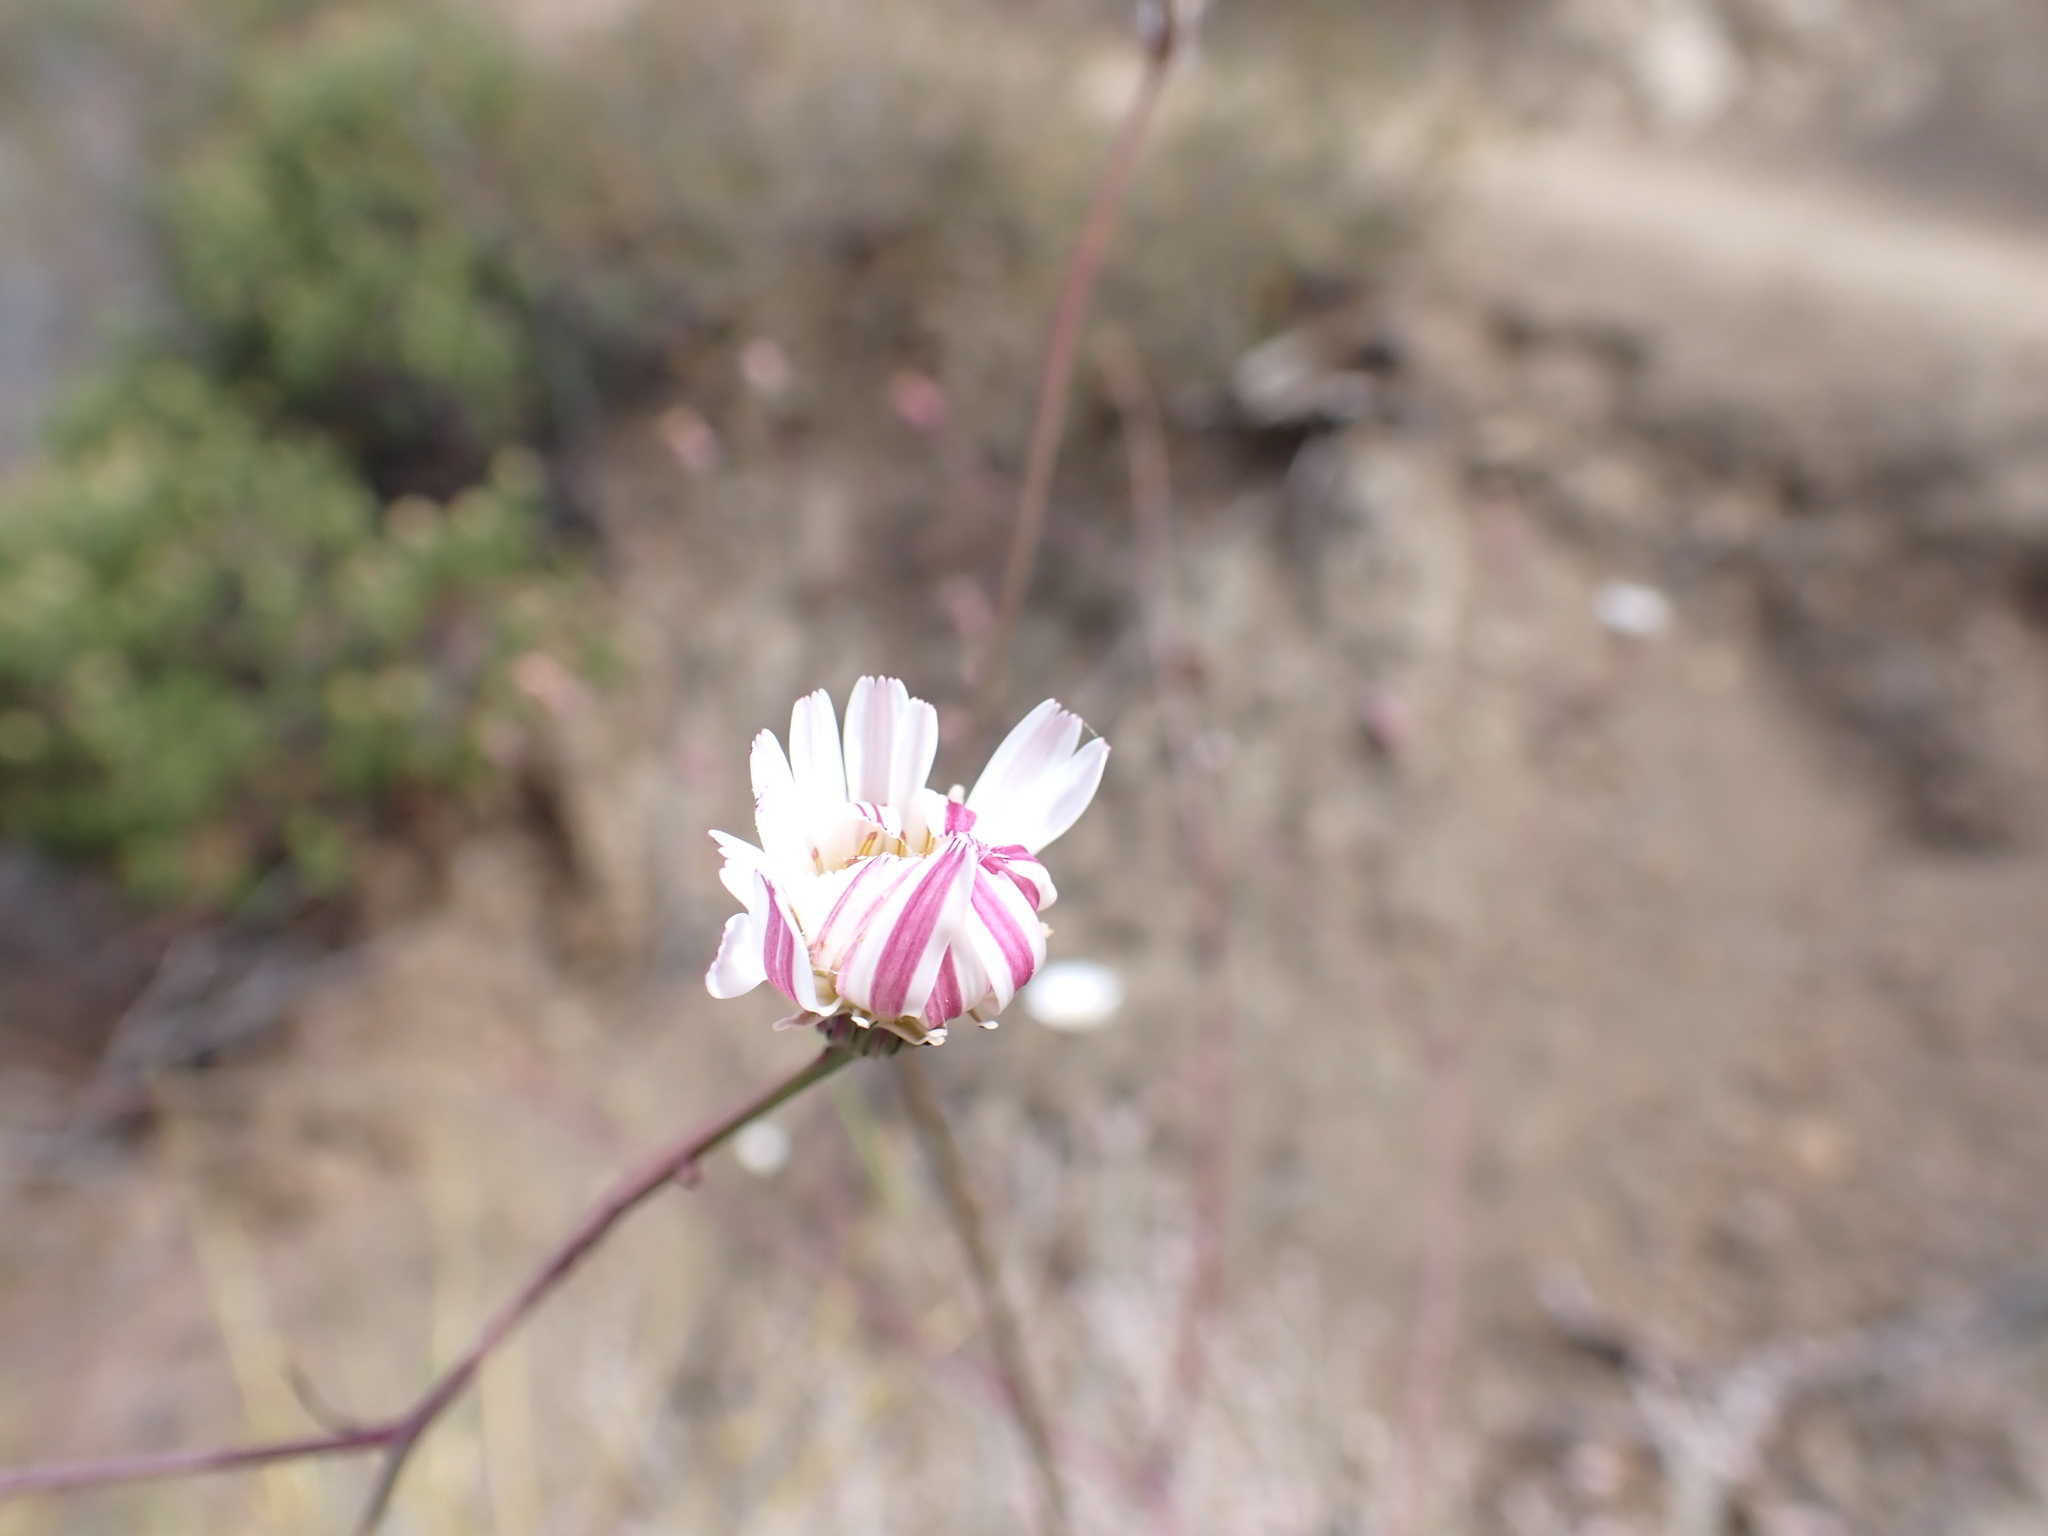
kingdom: Plantae
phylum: Tracheophyta
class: Magnoliopsida
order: Asterales
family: Asteraceae
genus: Malacothrix
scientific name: Malacothrix saxatilis
